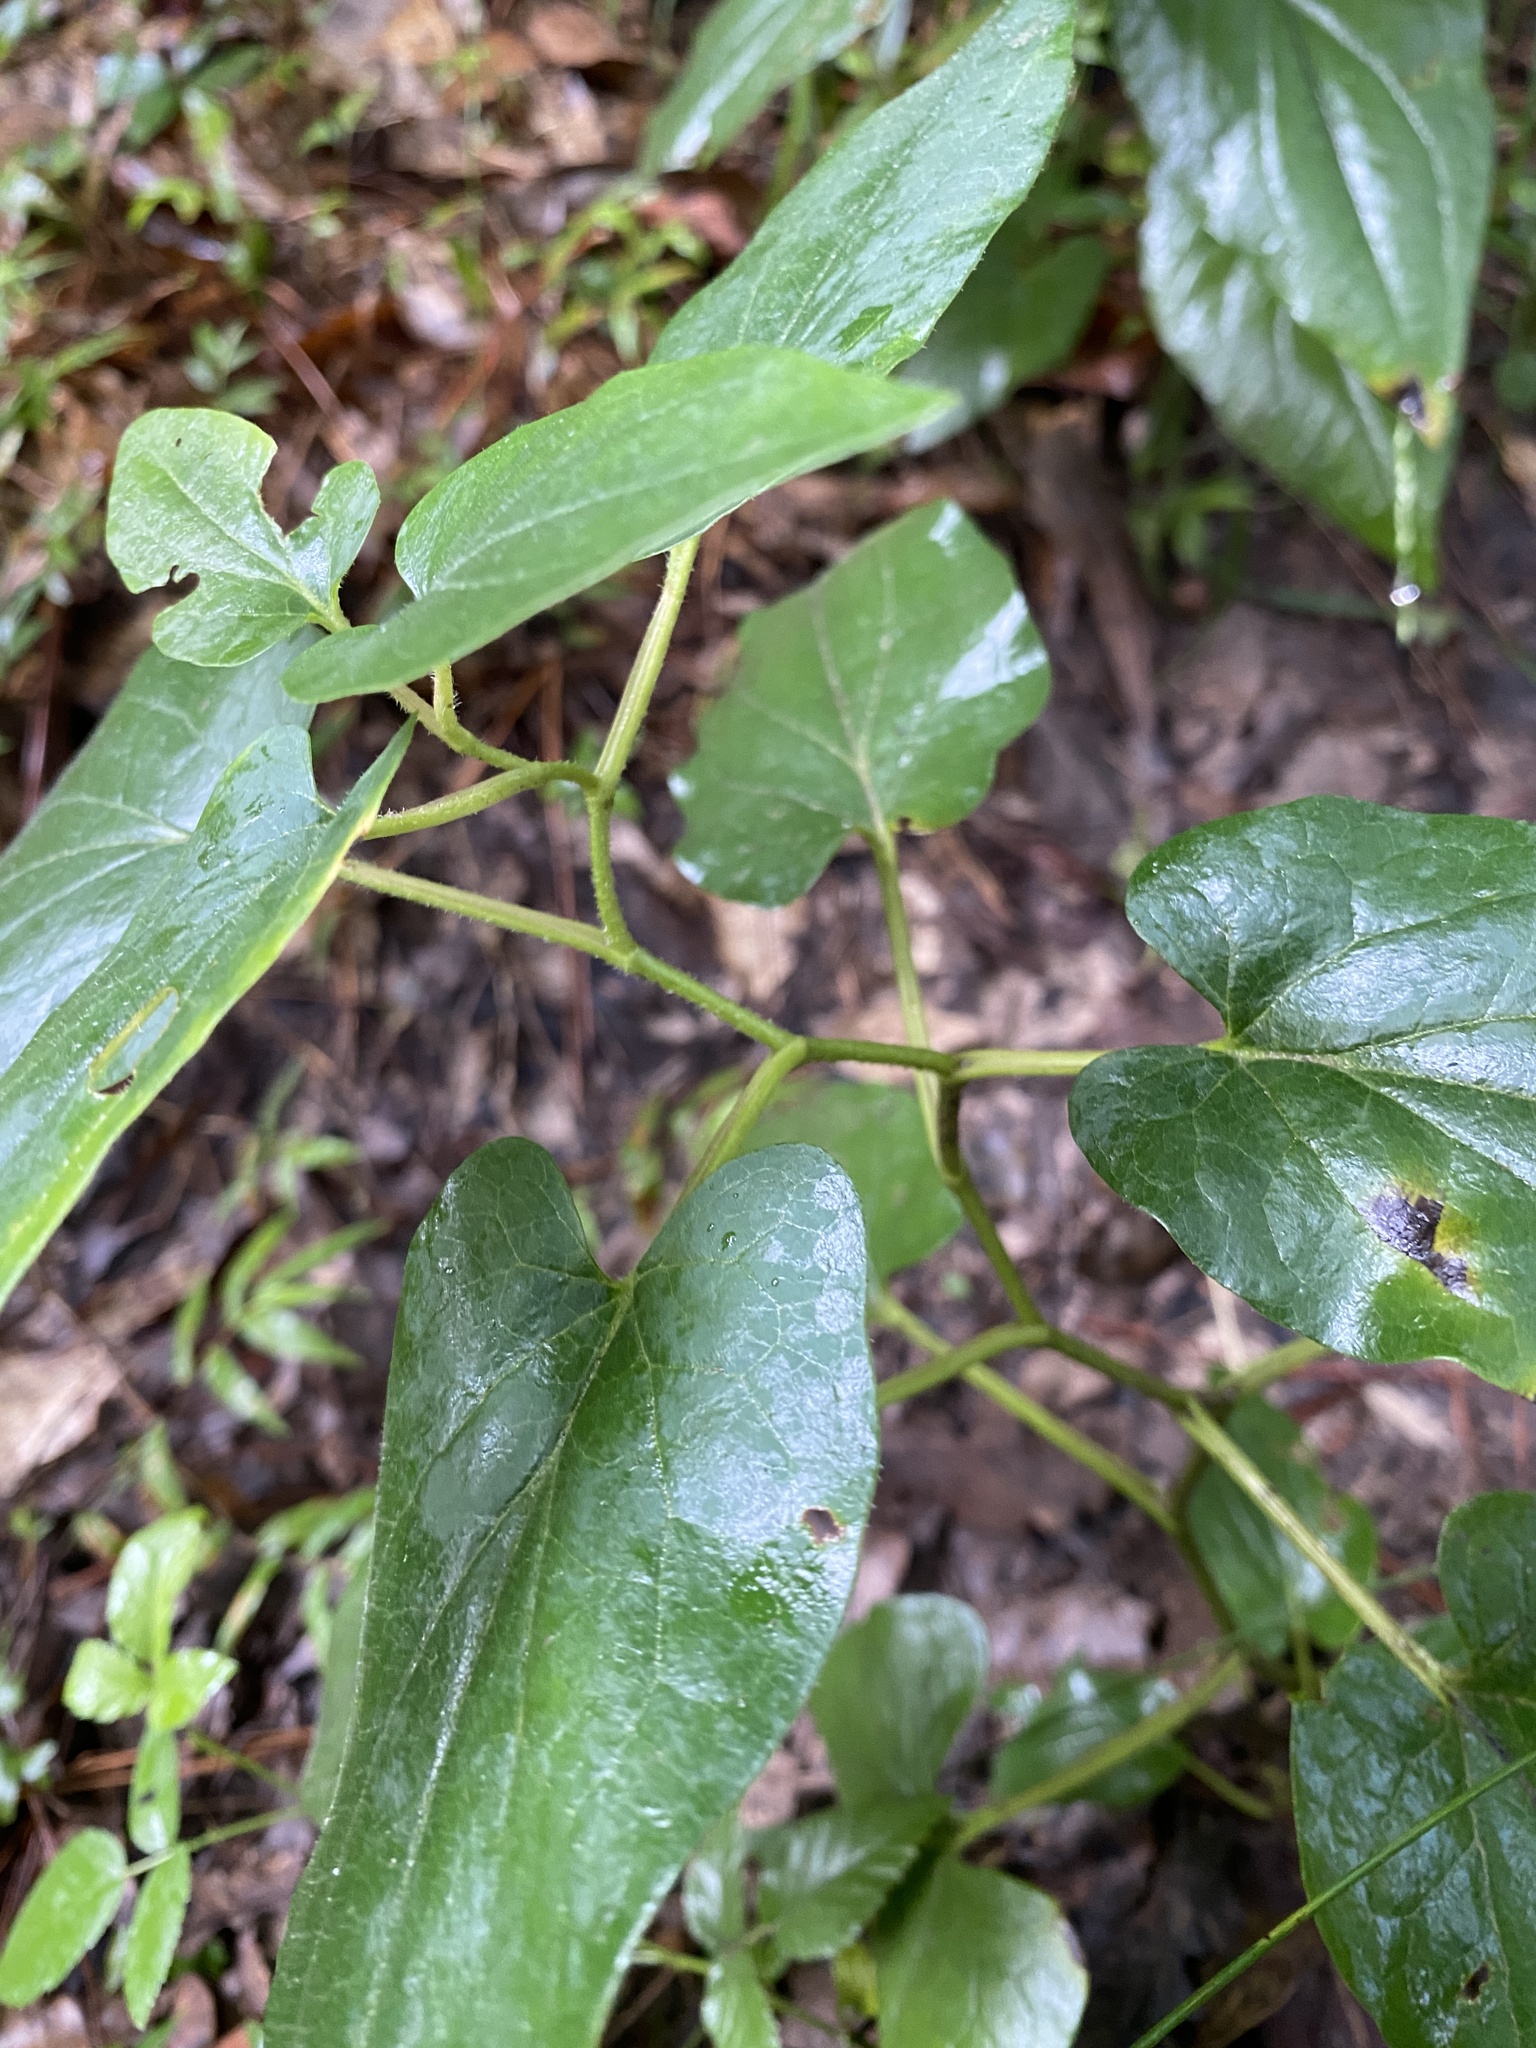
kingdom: Plantae
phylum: Tracheophyta
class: Magnoliopsida
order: Piperales
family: Saururaceae
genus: Saururus
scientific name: Saururus cernuus
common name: Lizard's-tail
